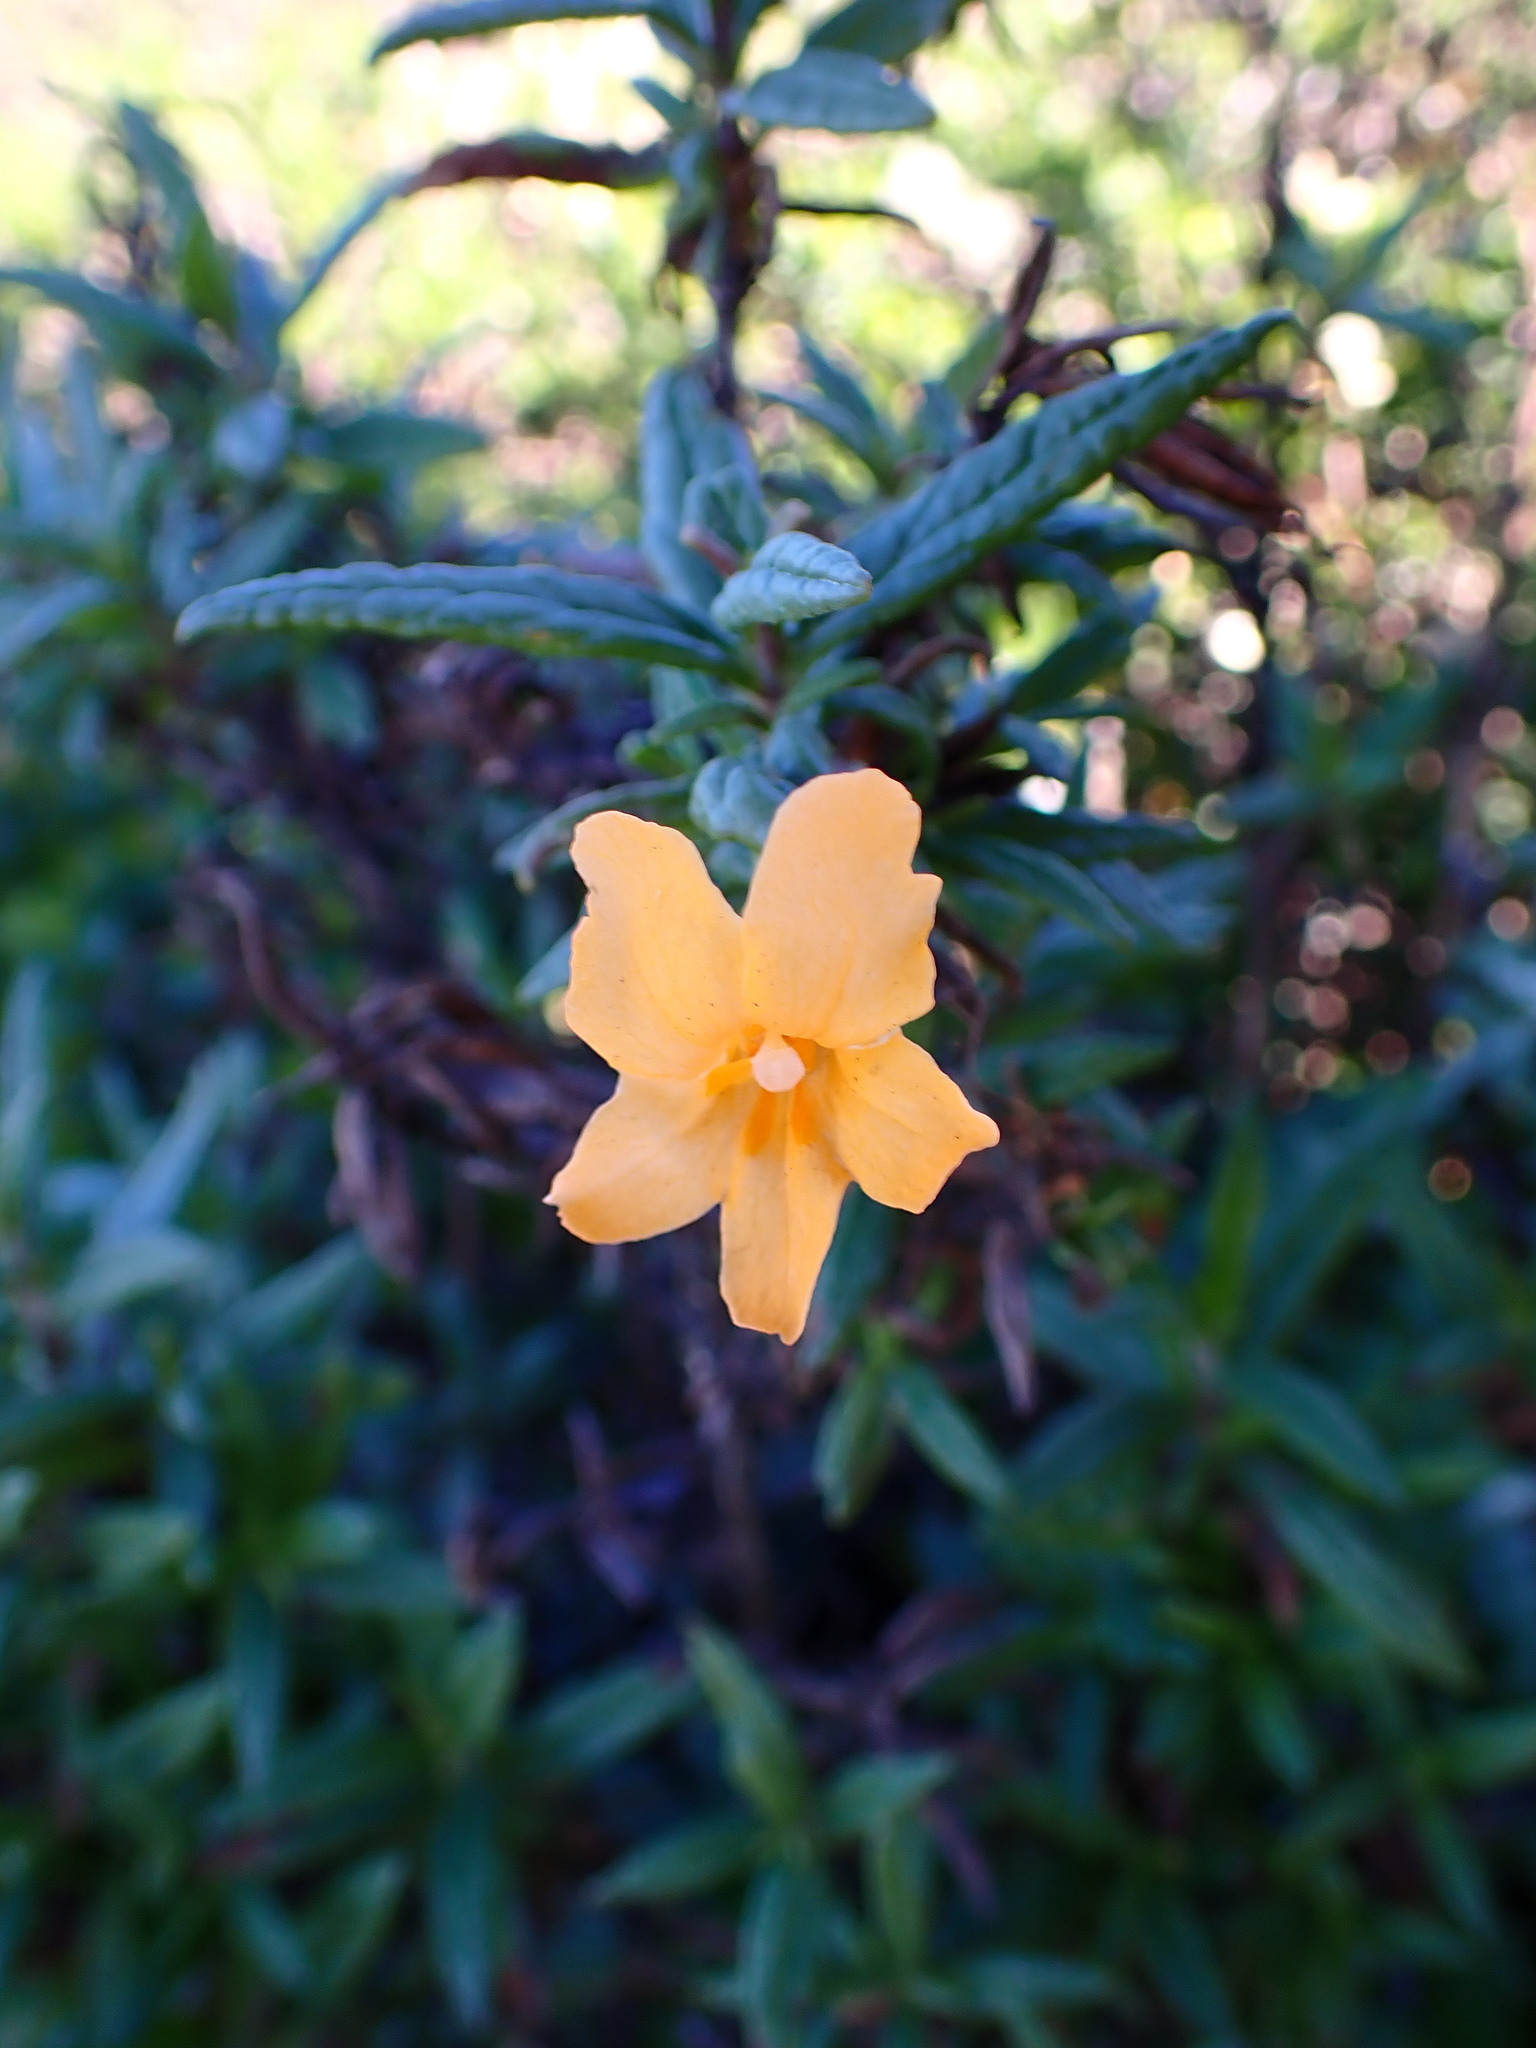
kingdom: Plantae
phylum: Tracheophyta
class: Magnoliopsida
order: Lamiales
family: Phrymaceae
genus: Diplacus
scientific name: Diplacus aurantiacus
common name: Bush monkey-flower
